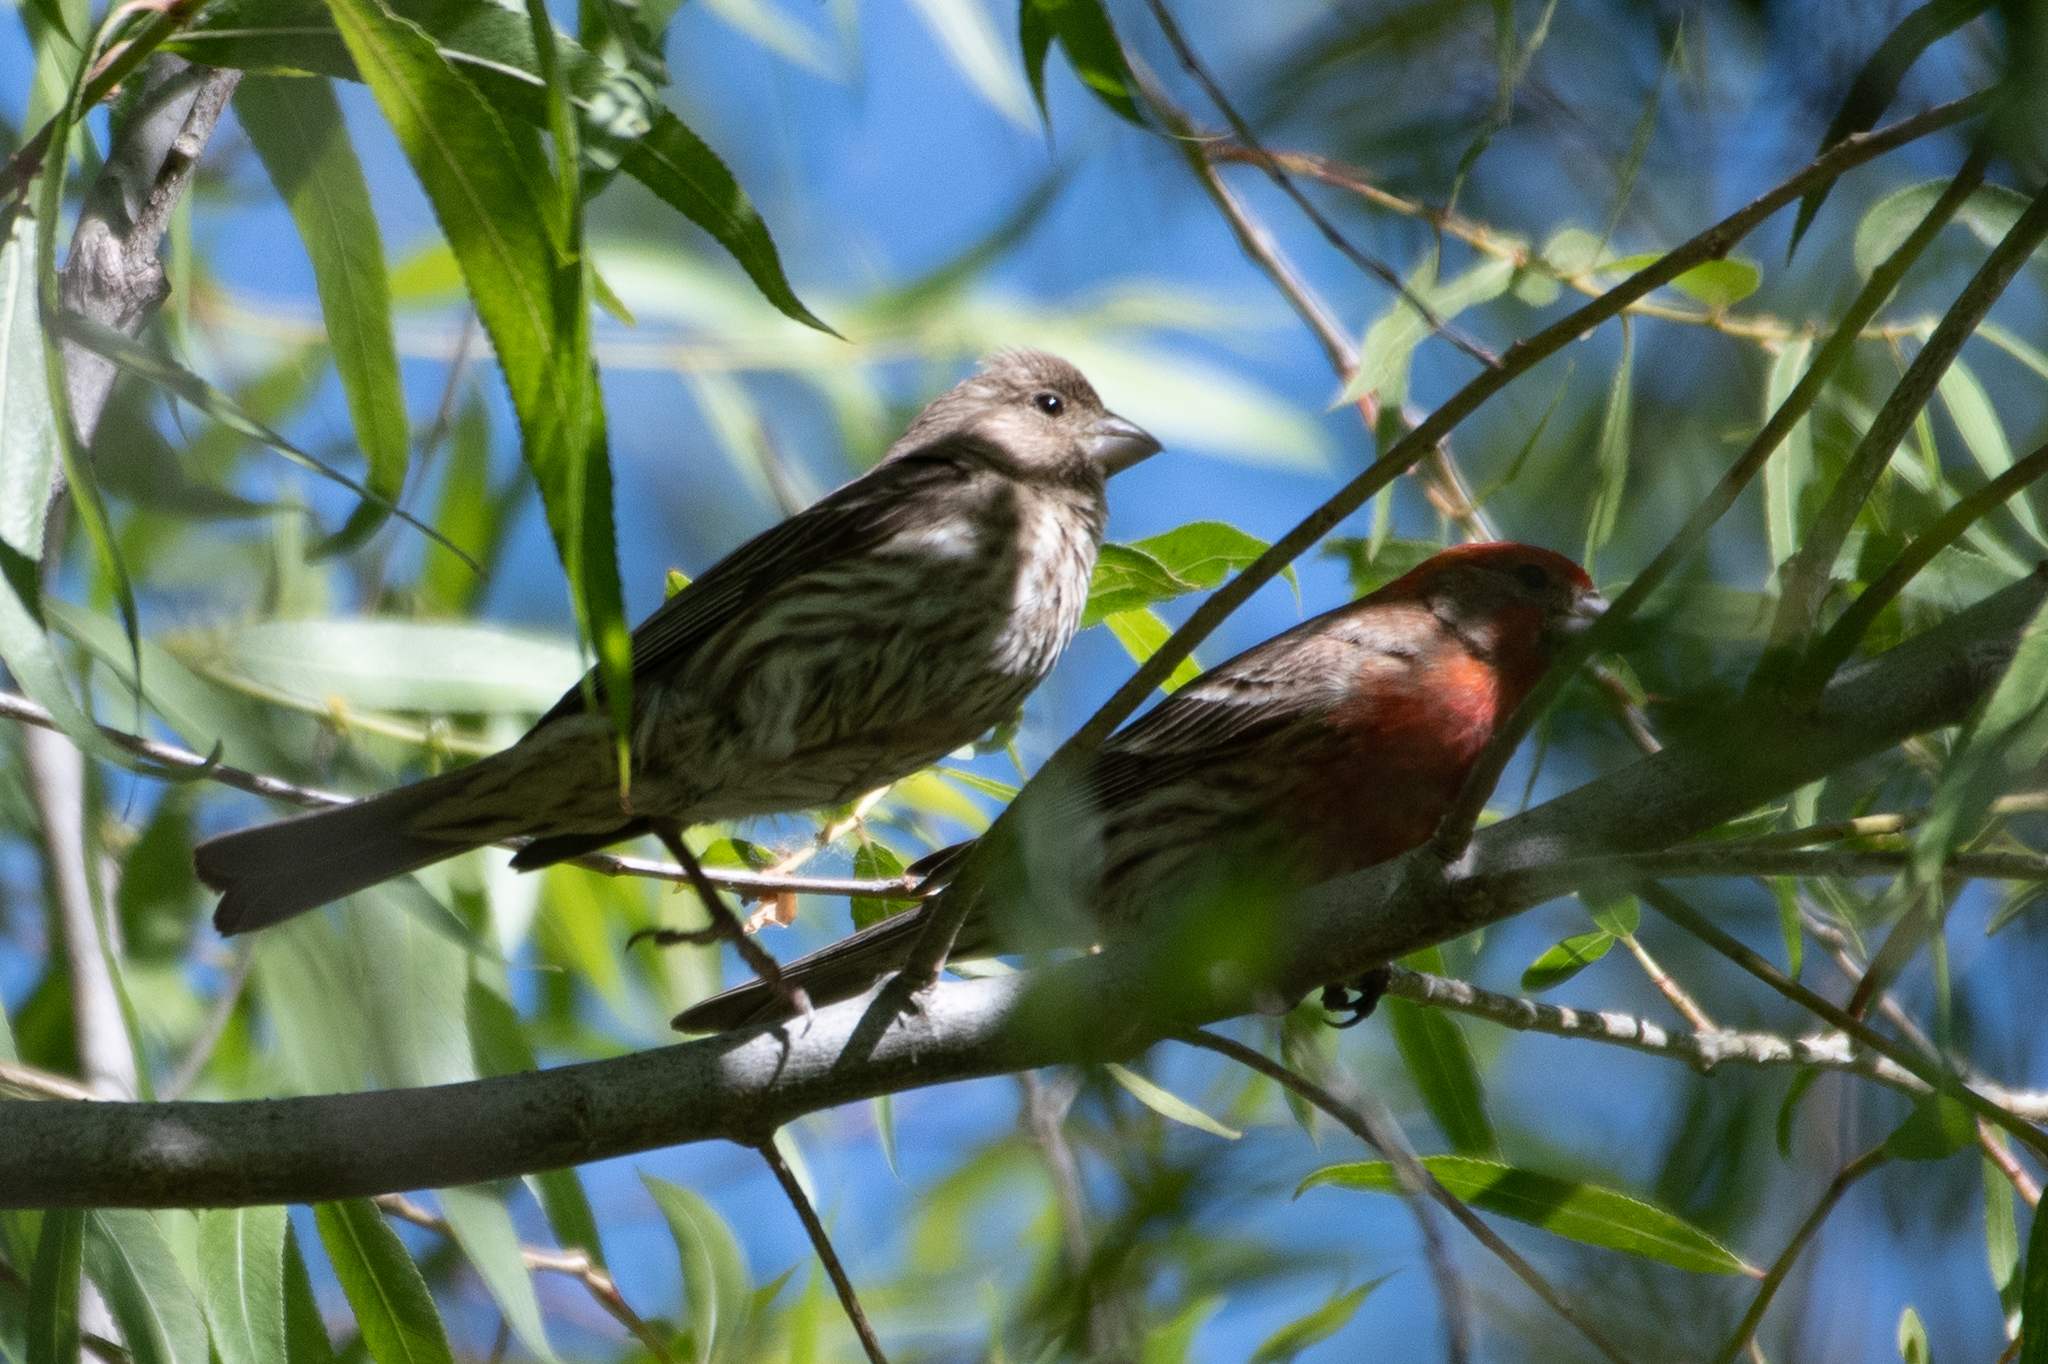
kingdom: Animalia
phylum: Chordata
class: Aves
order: Passeriformes
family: Fringillidae
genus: Haemorhous
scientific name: Haemorhous mexicanus
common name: House finch
